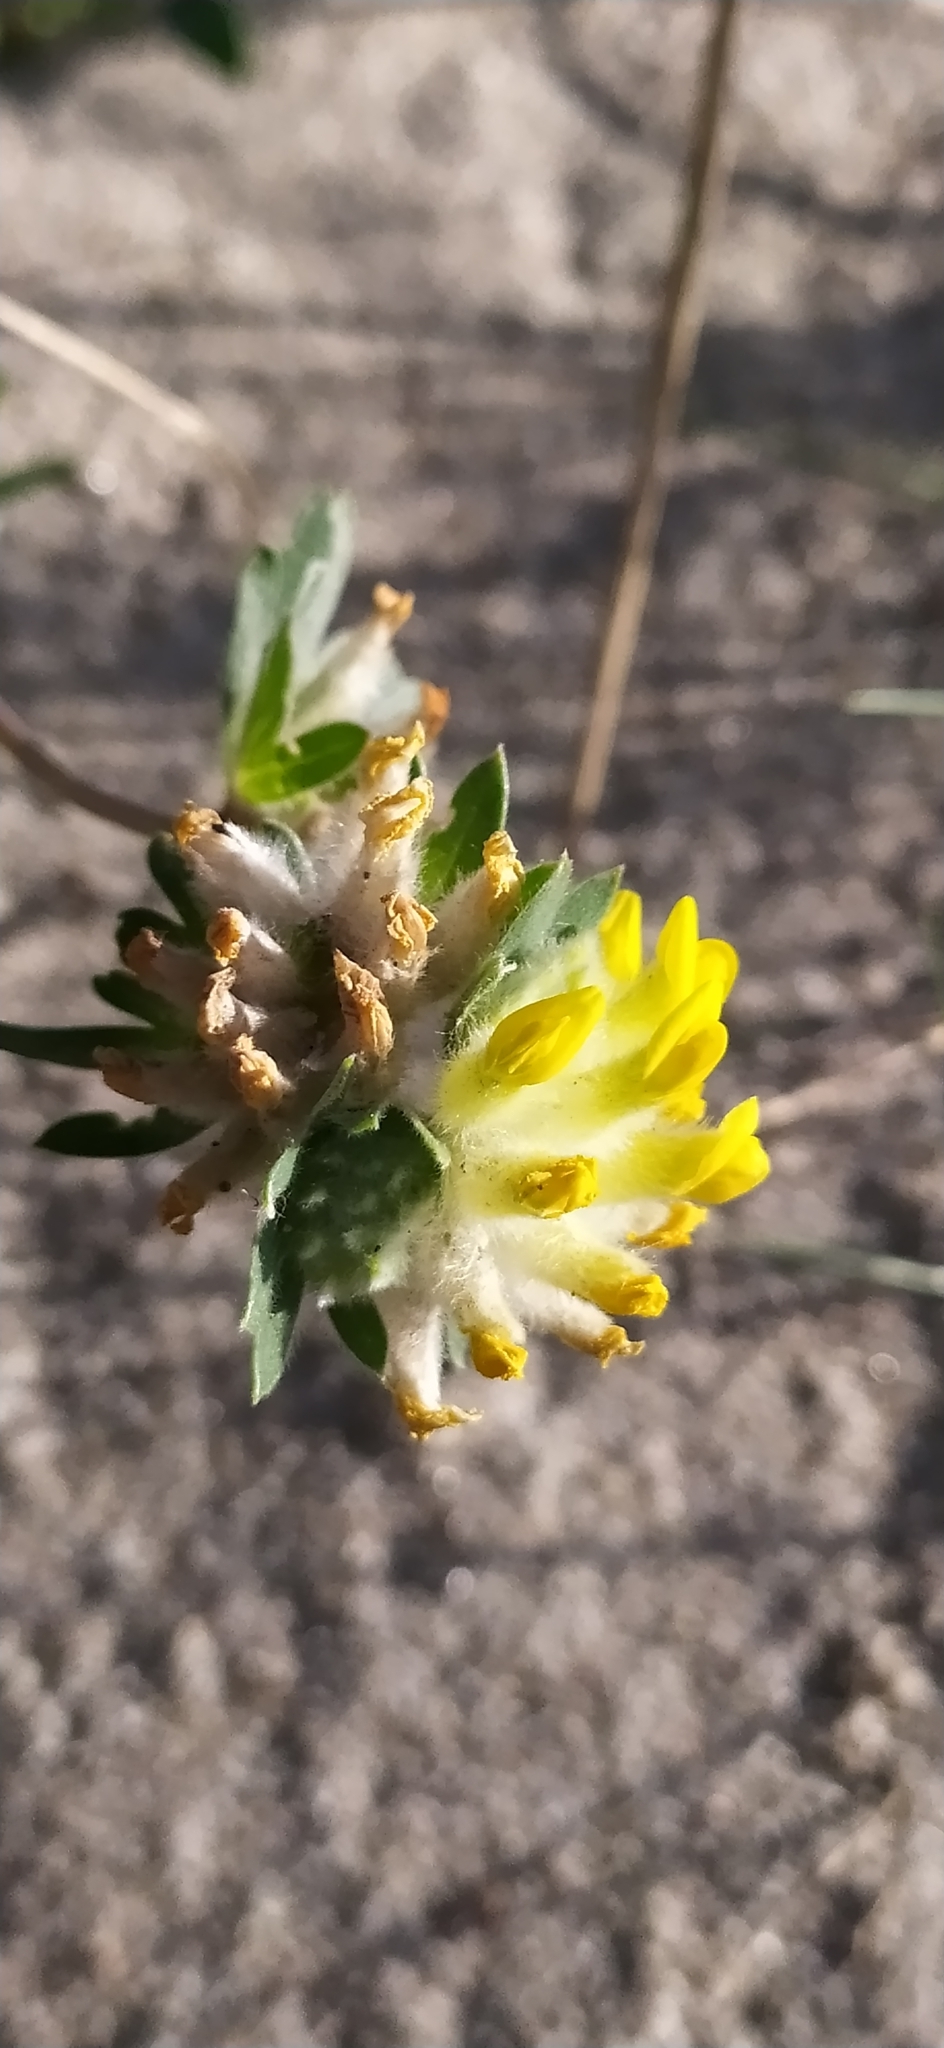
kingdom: Plantae
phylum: Tracheophyta
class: Magnoliopsida
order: Fabales
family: Fabaceae
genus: Anthyllis
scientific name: Anthyllis vulneraria
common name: Kidney vetch
